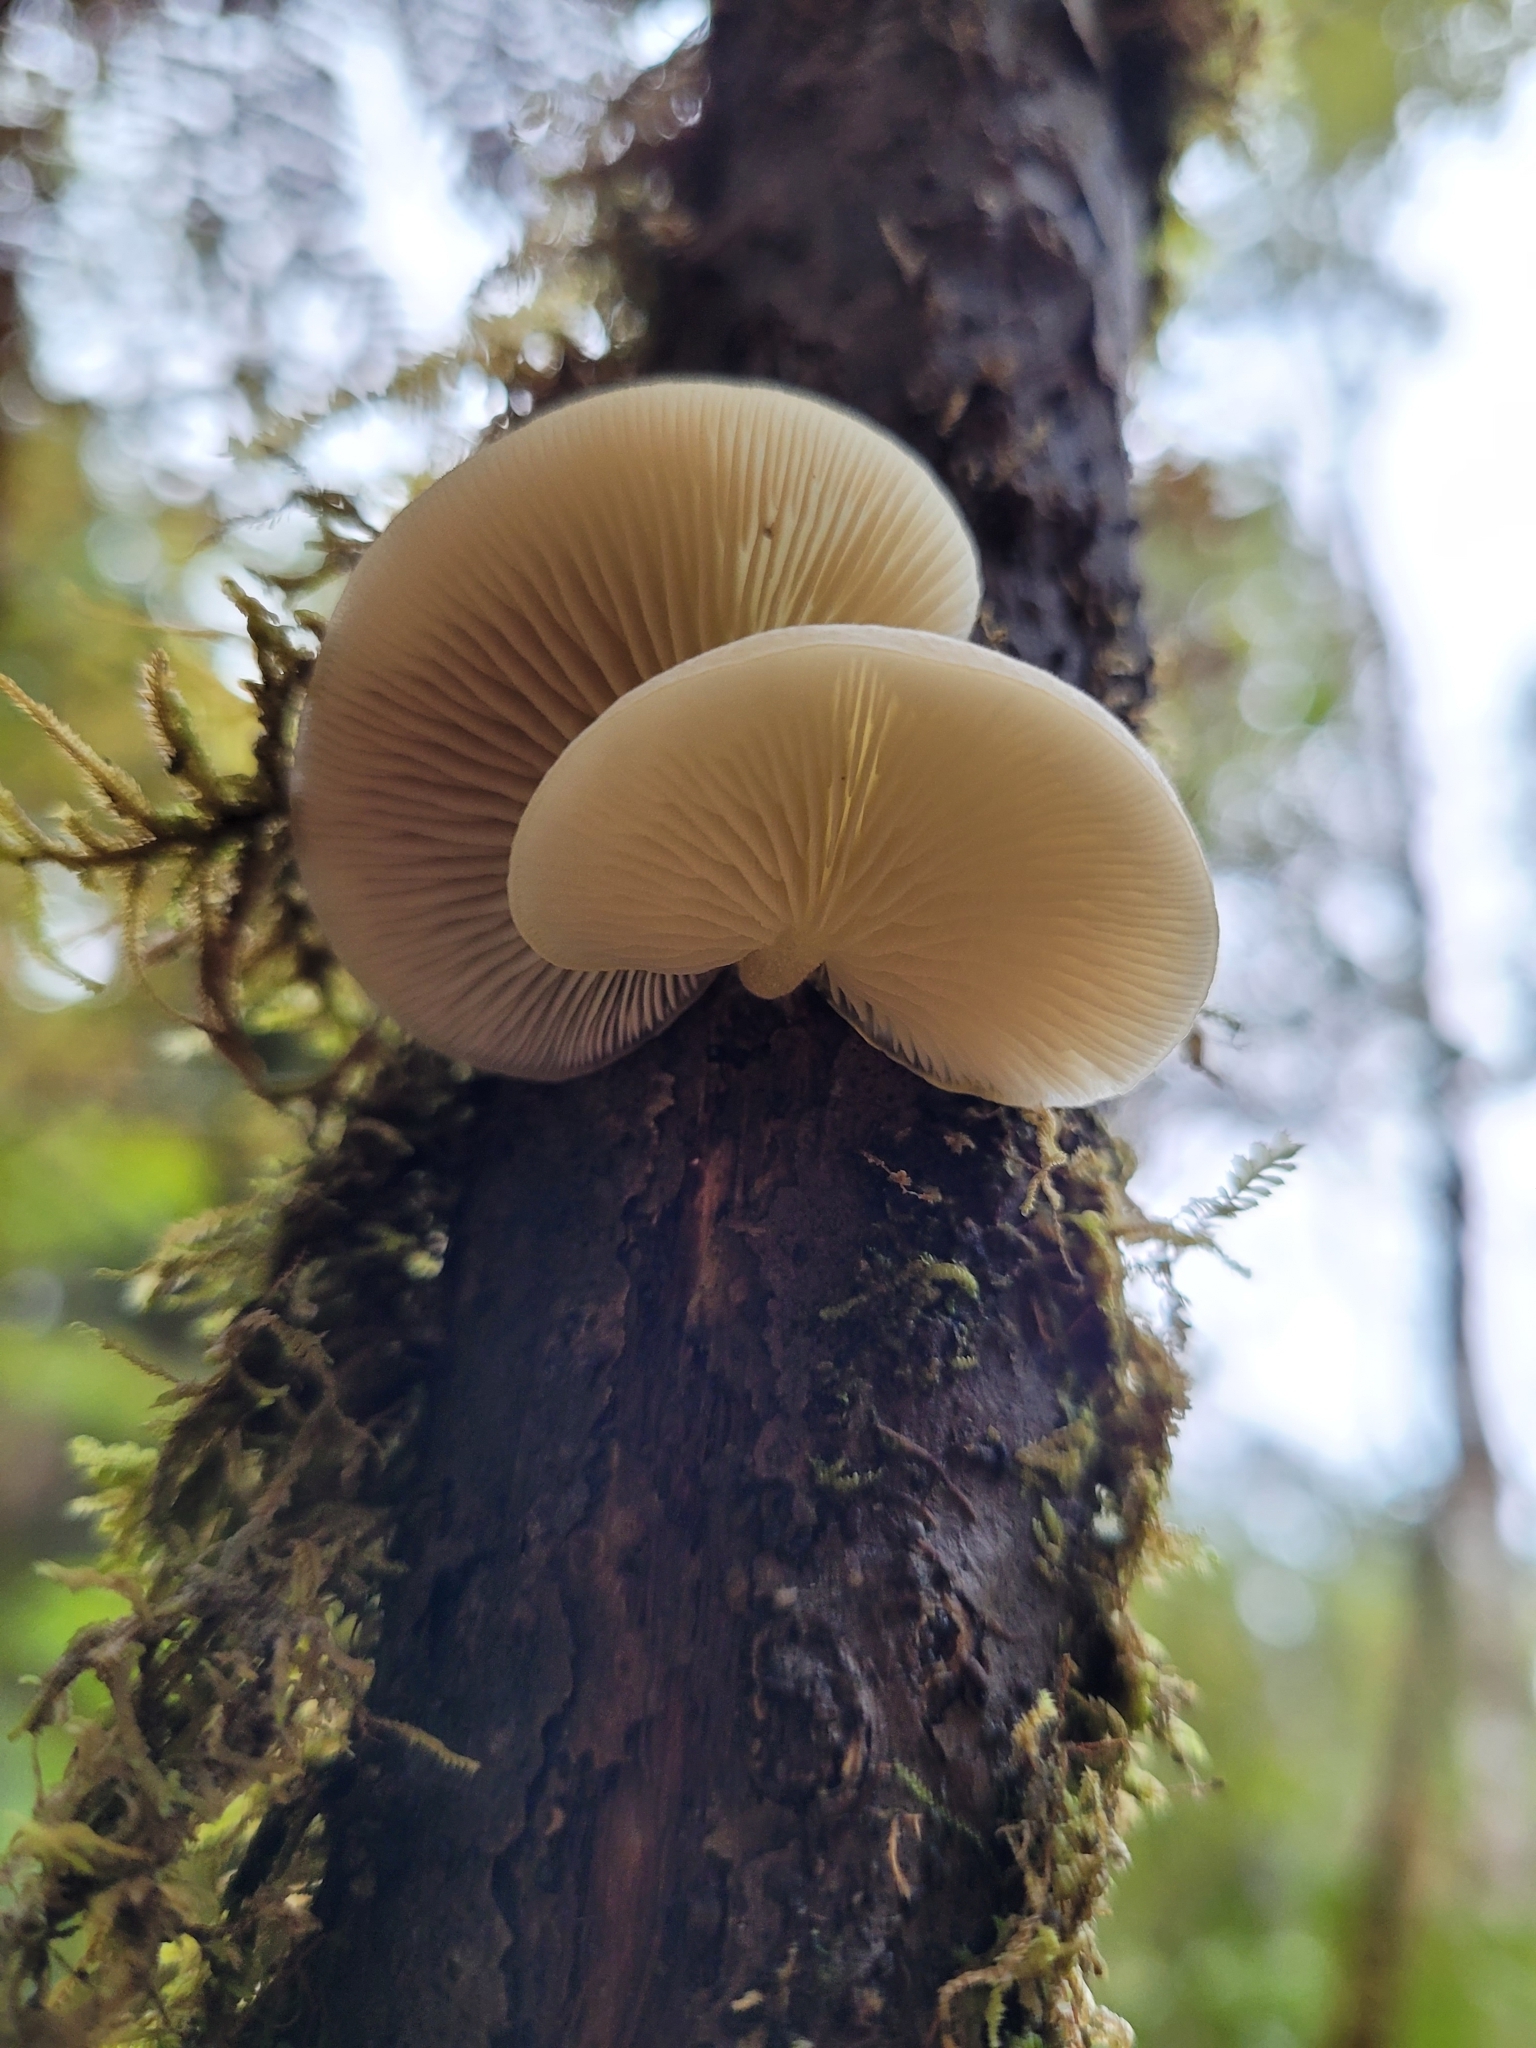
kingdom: Fungi
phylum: Basidiomycota
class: Agaricomycetes
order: Agaricales
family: Tricholomataceae
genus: Conchomyces
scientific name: Conchomyces bursiformis
